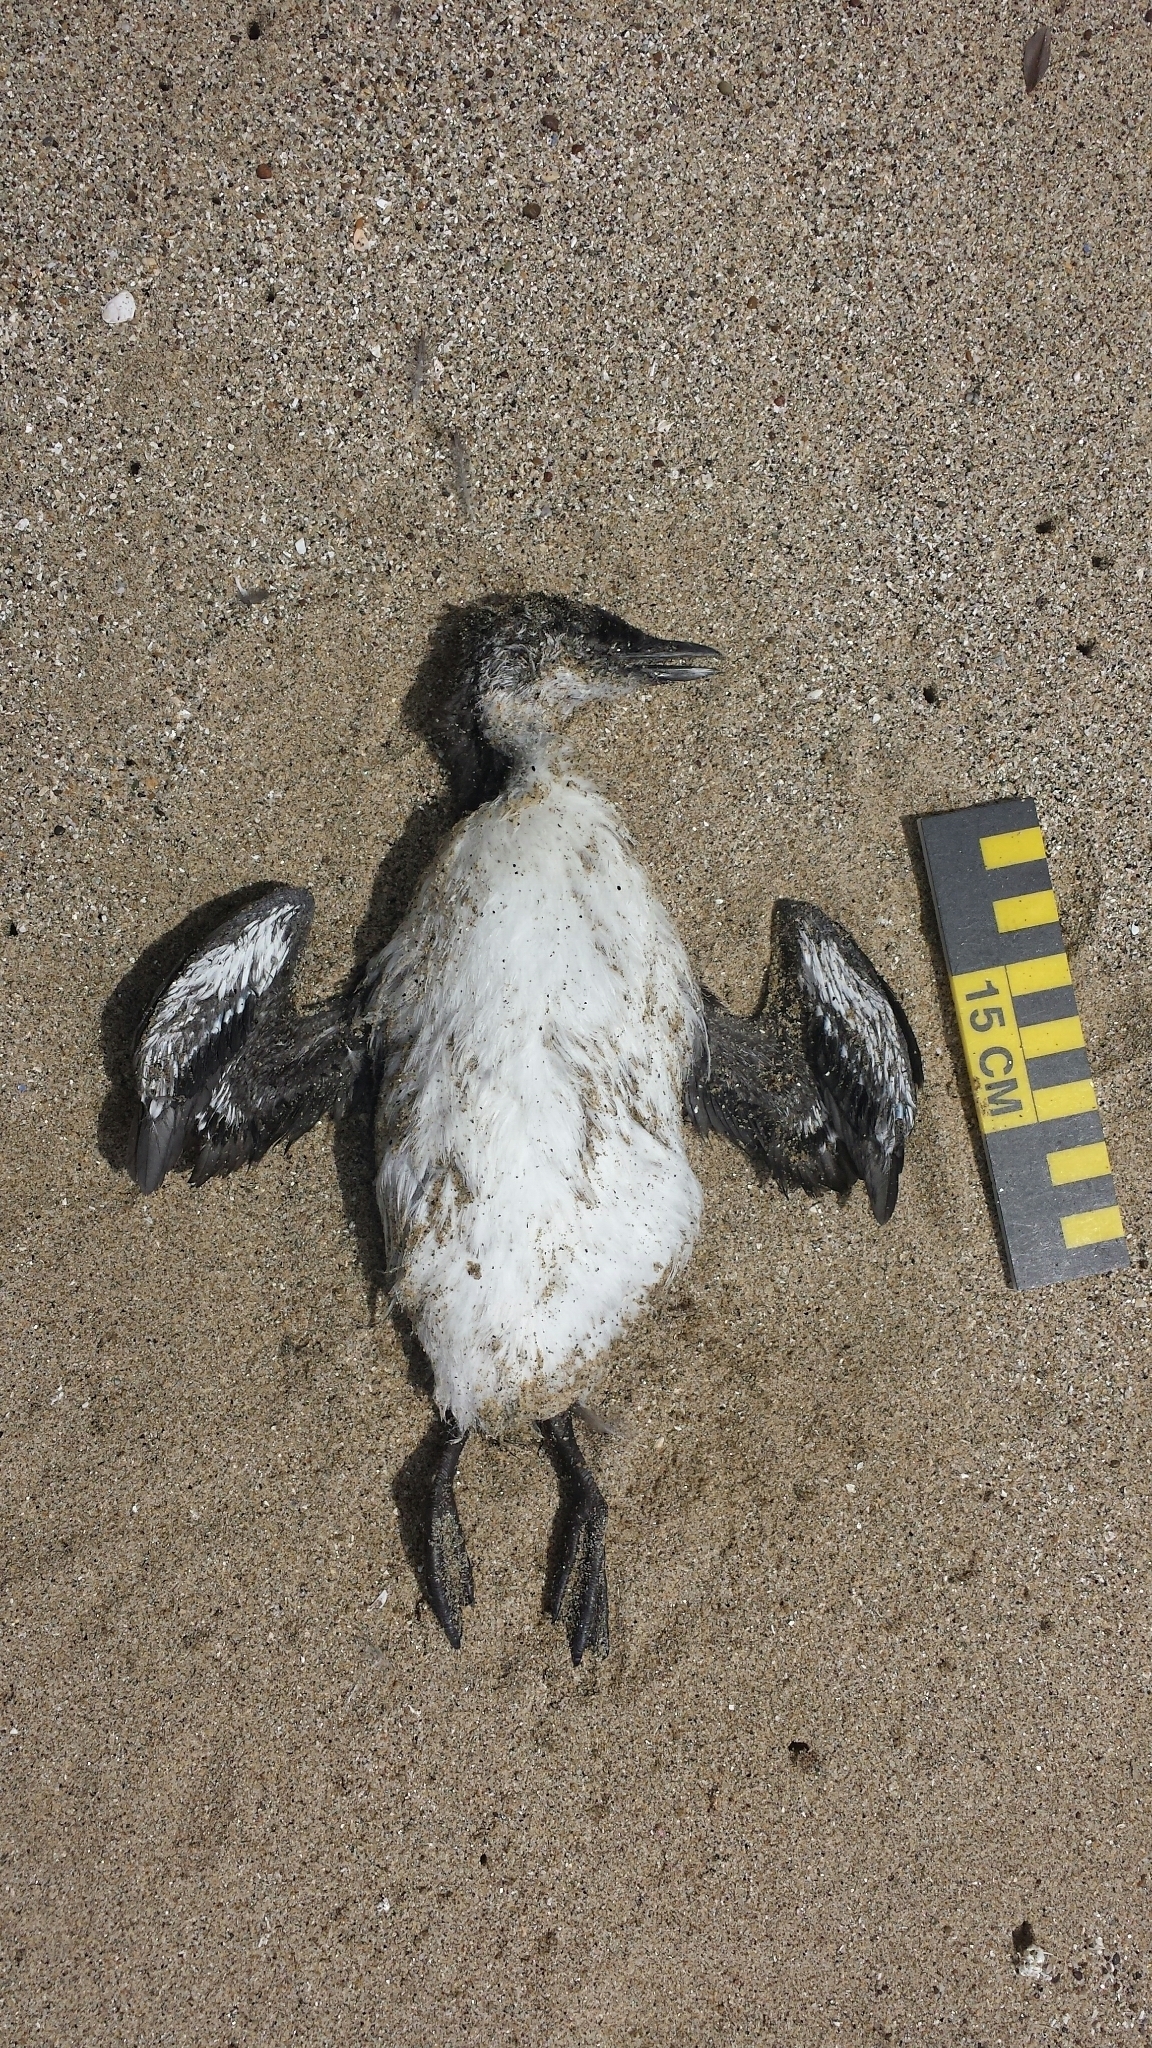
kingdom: Animalia
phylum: Chordata
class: Aves
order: Charadriiformes
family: Alcidae
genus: Uria
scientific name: Uria aalge
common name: Common murre
